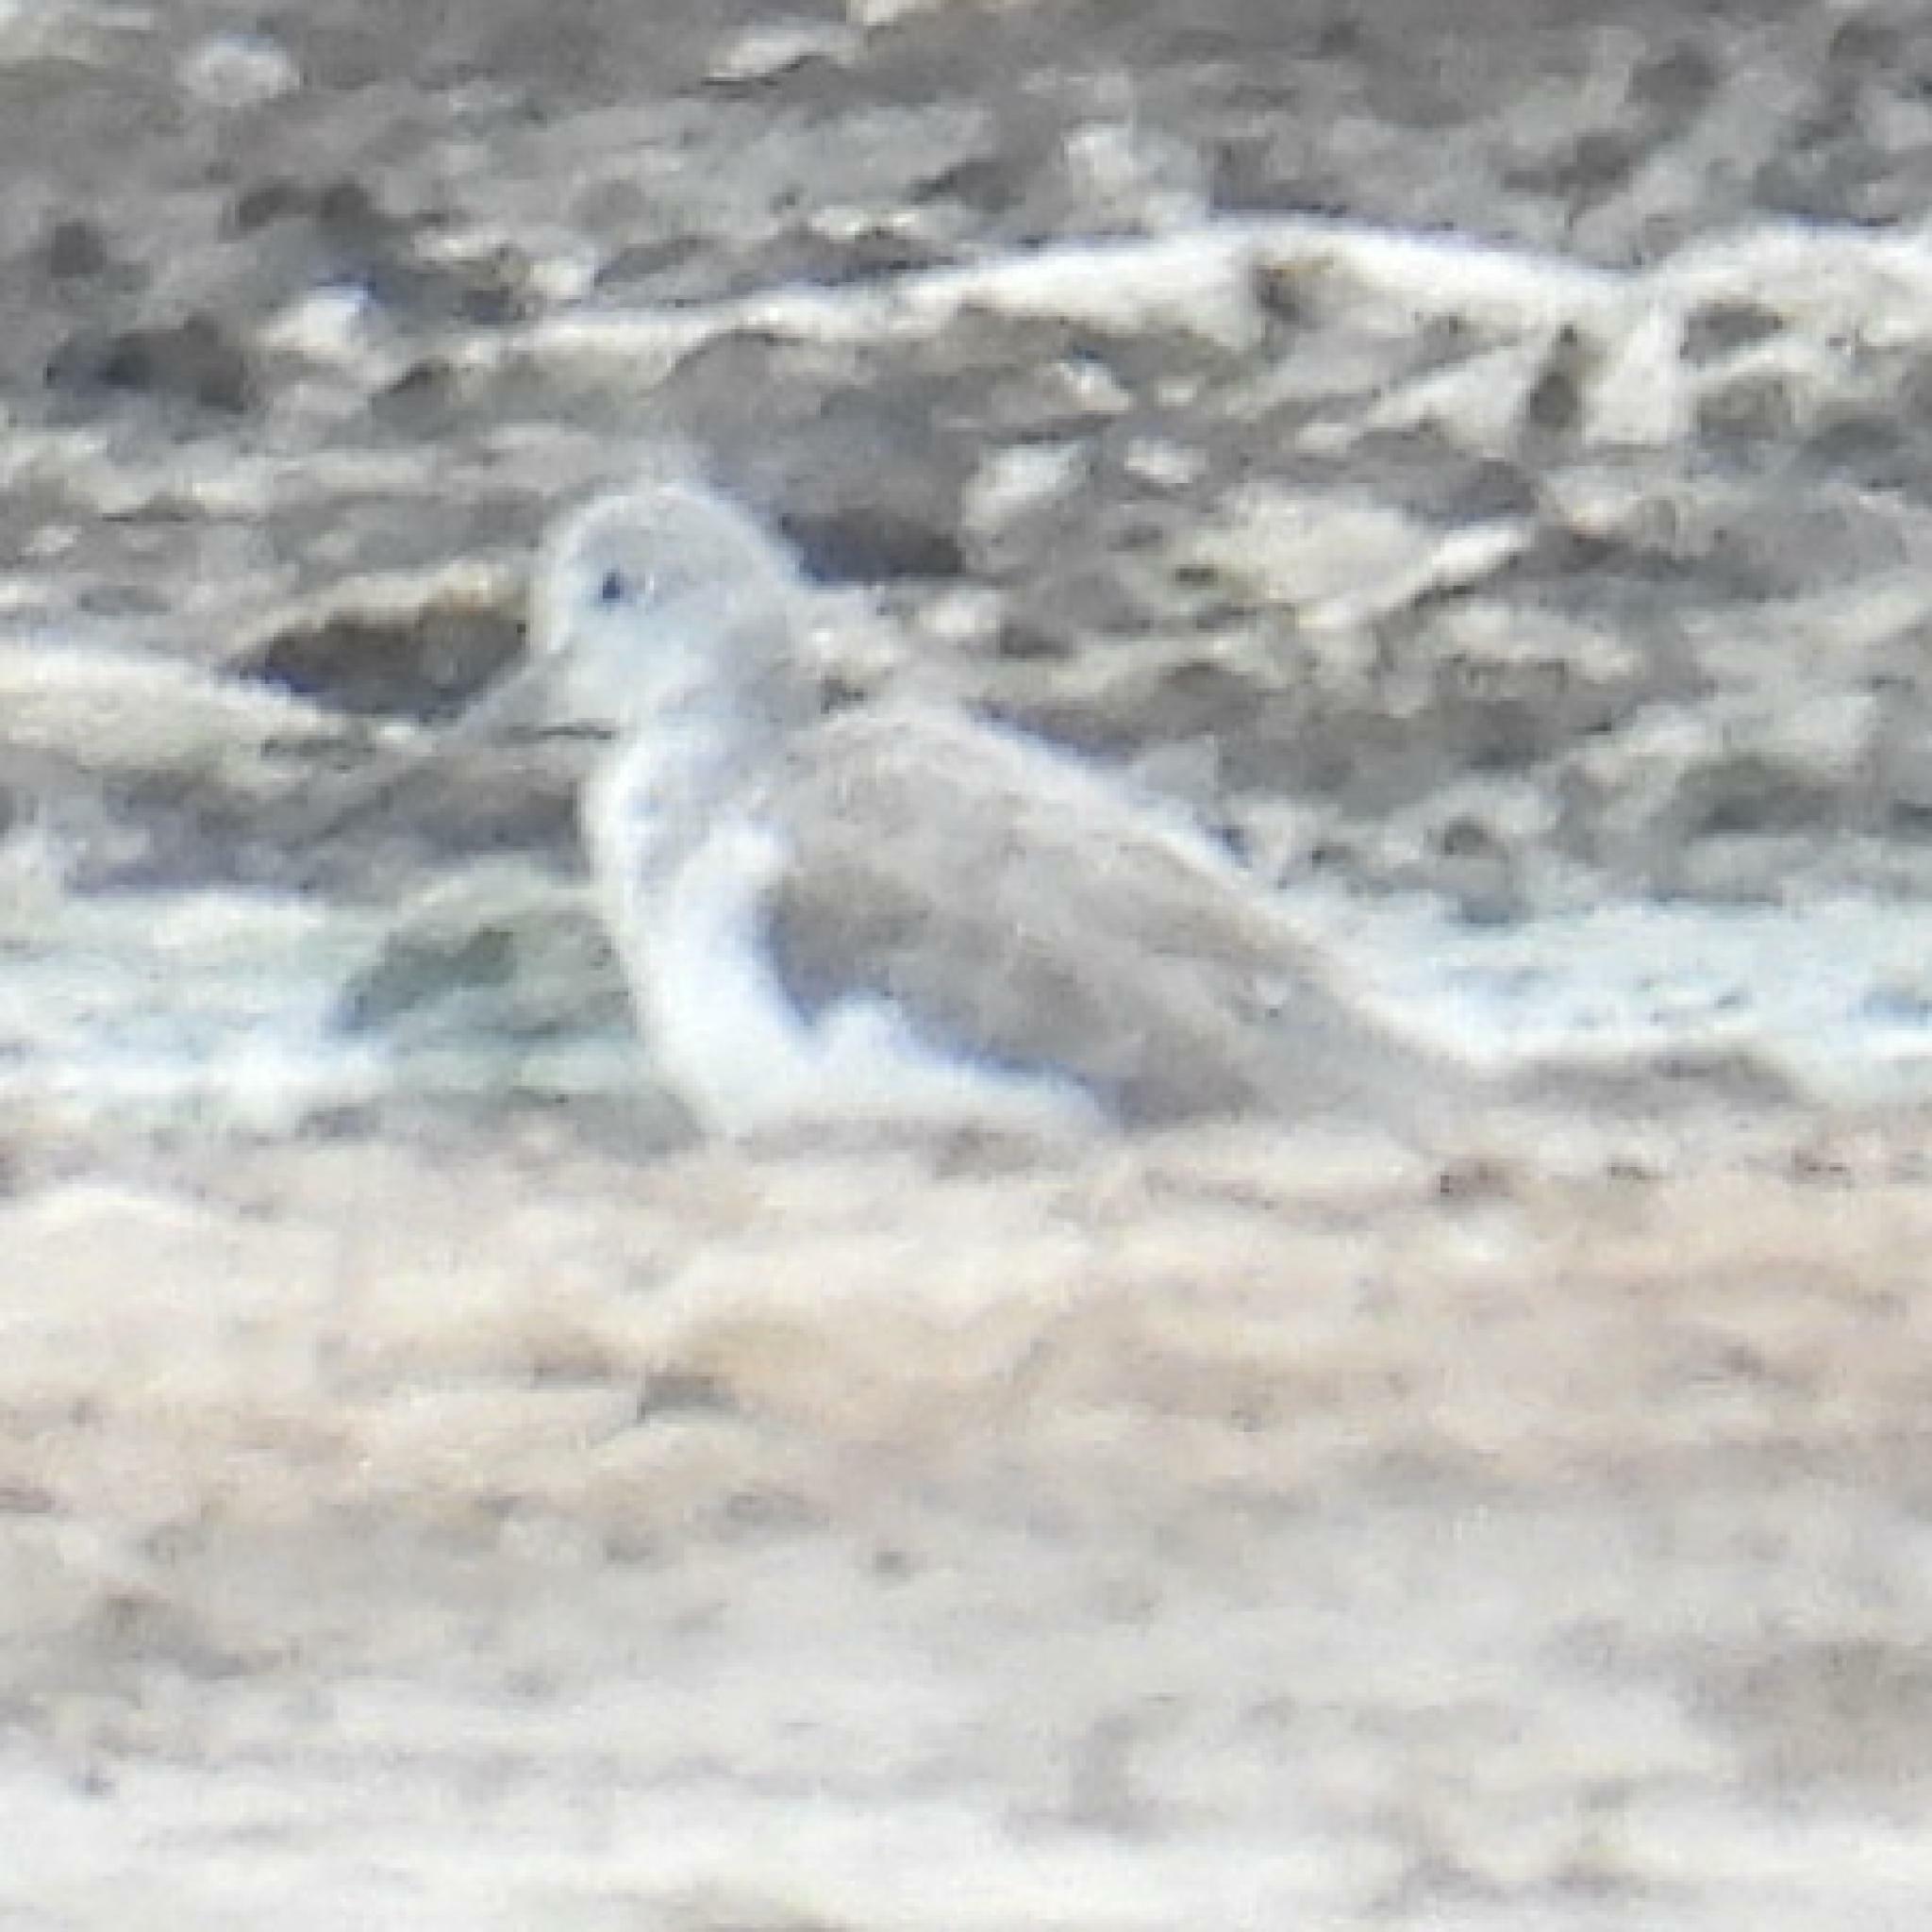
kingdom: Animalia
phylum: Chordata
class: Aves
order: Charadriiformes
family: Scolopacidae
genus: Tringa
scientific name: Tringa nebularia
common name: Common greenshank
